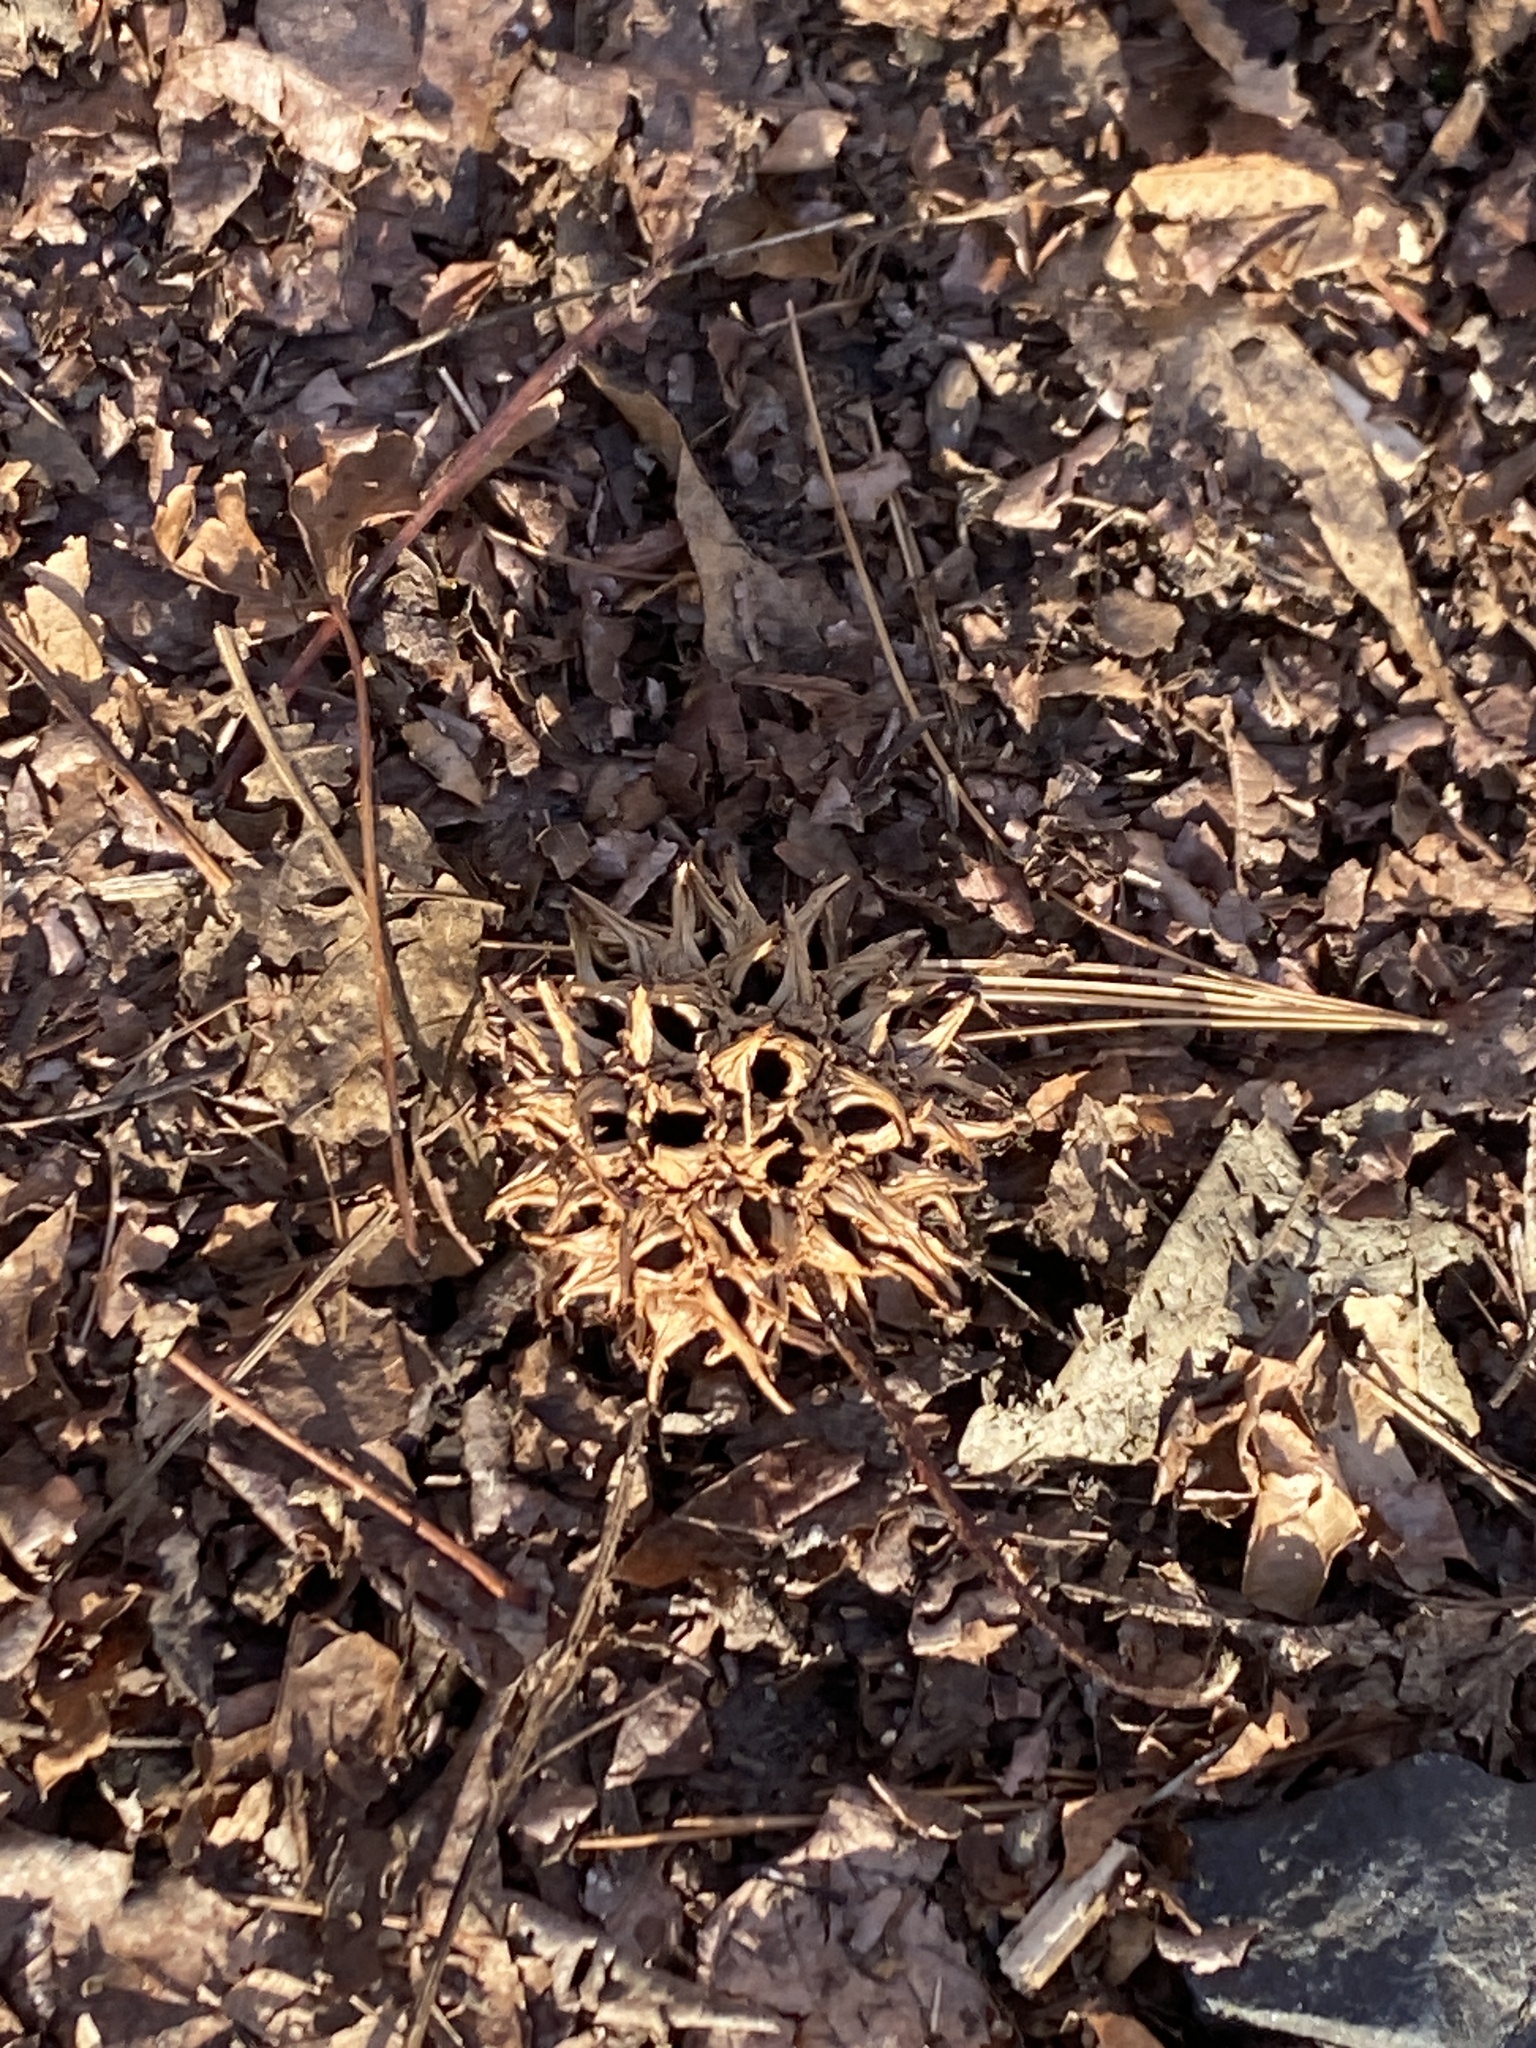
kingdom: Plantae
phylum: Tracheophyta
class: Magnoliopsida
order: Saxifragales
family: Altingiaceae
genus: Liquidambar
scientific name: Liquidambar styraciflua
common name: Sweet gum
